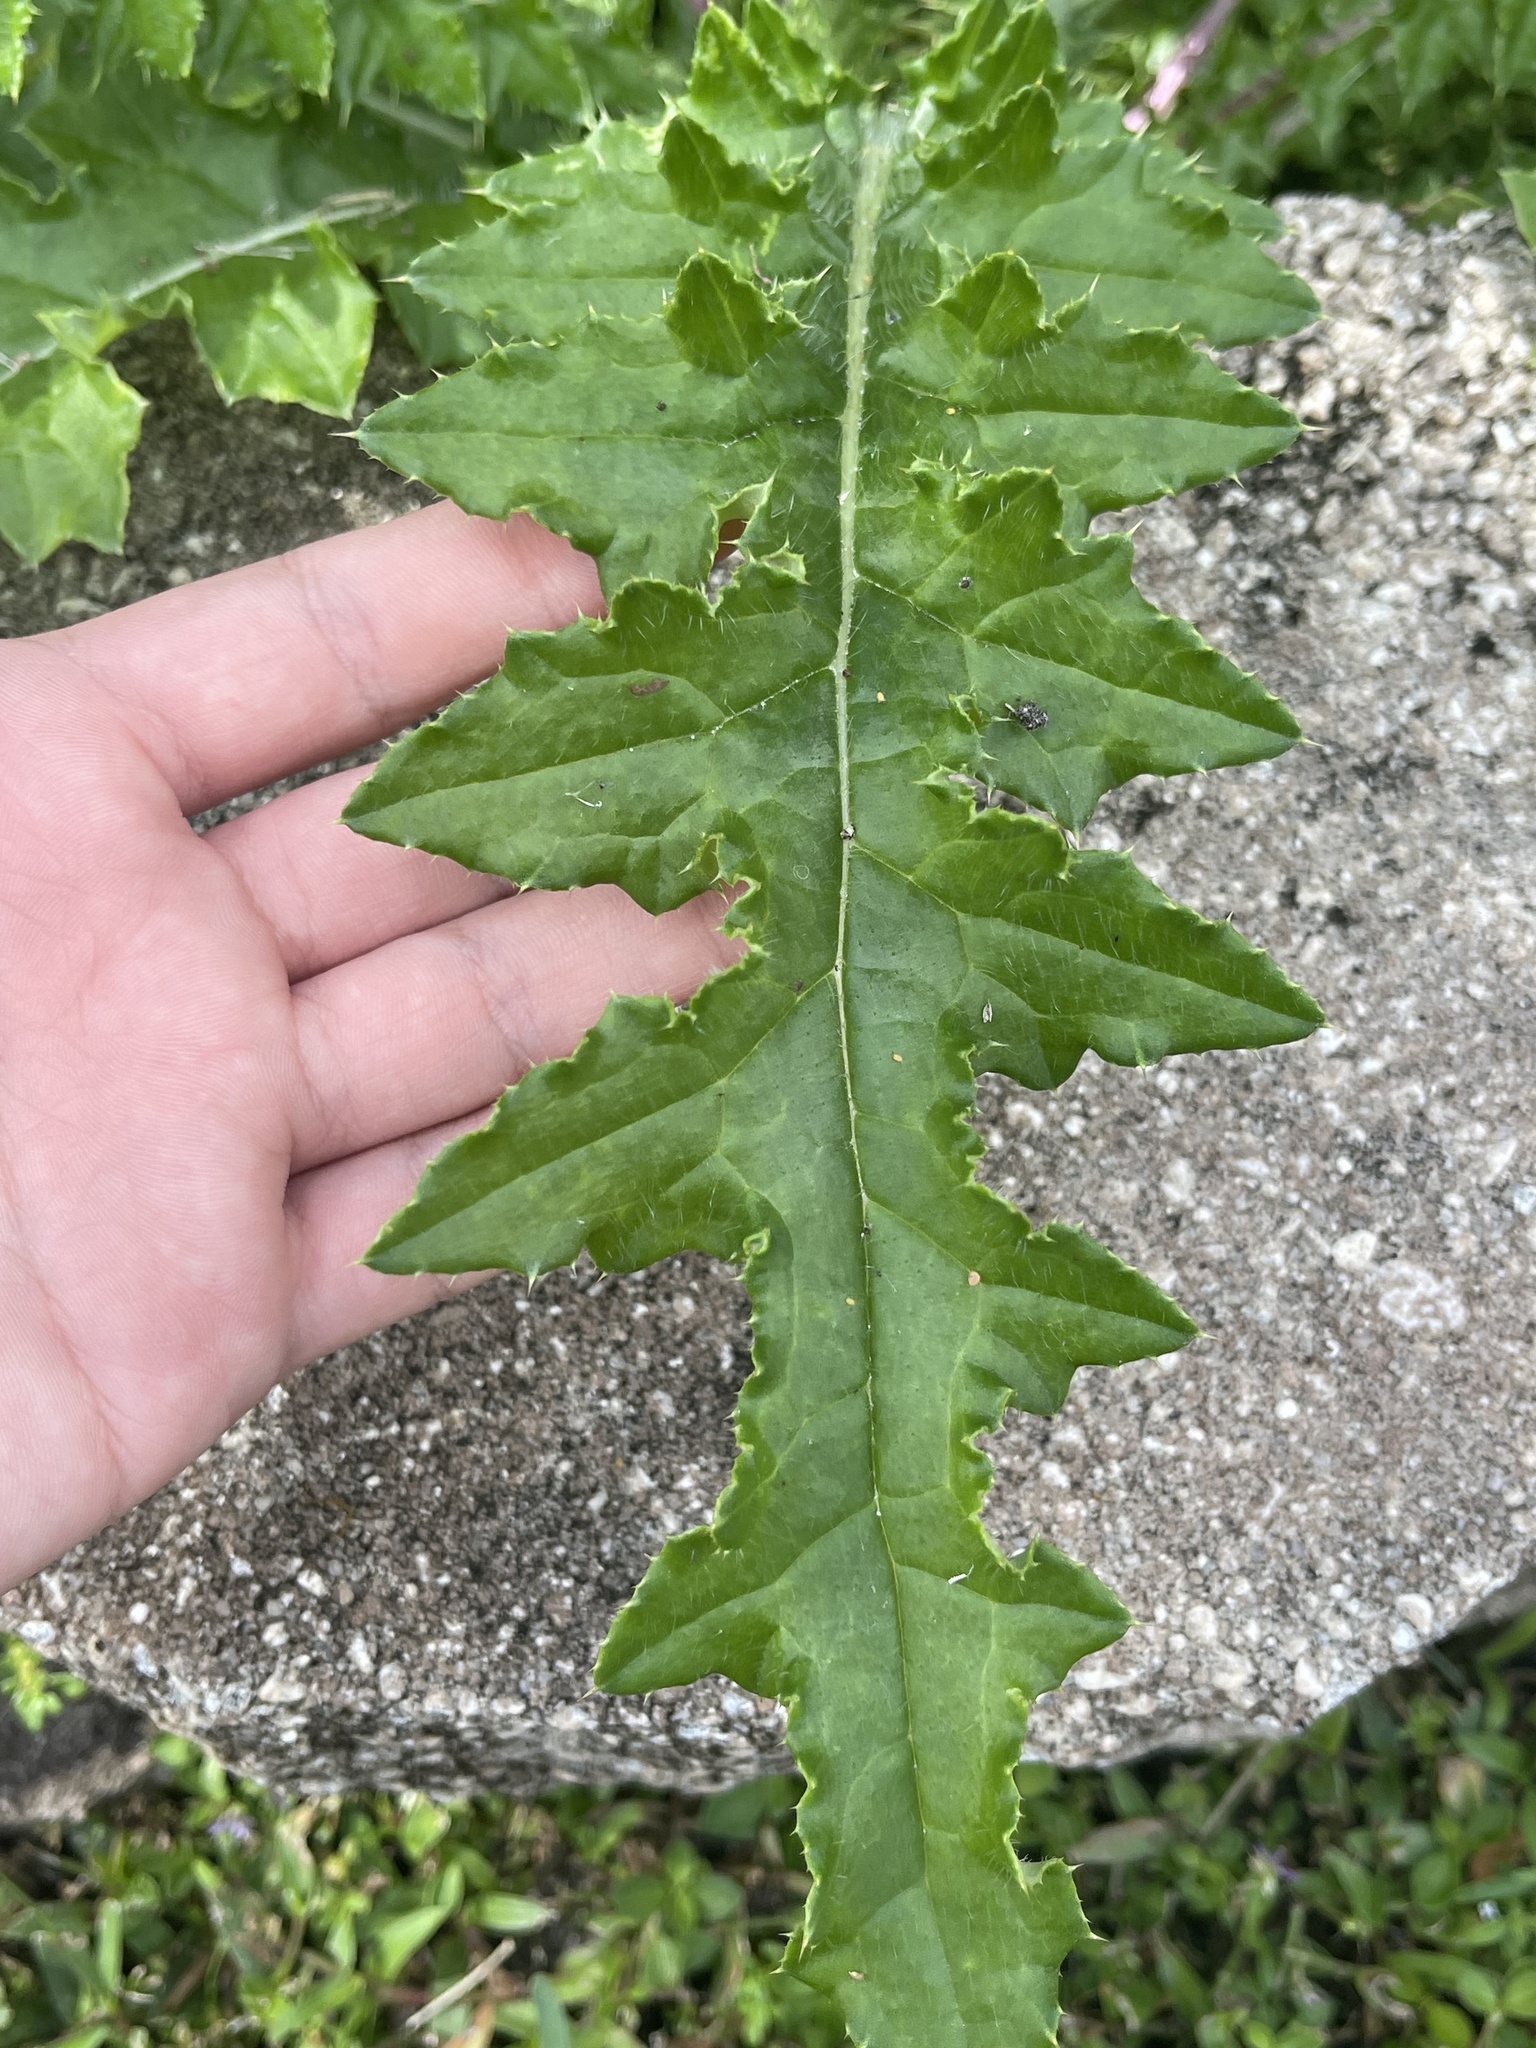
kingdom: Plantae
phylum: Tracheophyta
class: Magnoliopsida
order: Asterales
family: Asteraceae
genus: Cirsium
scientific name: Cirsium nuttalii
